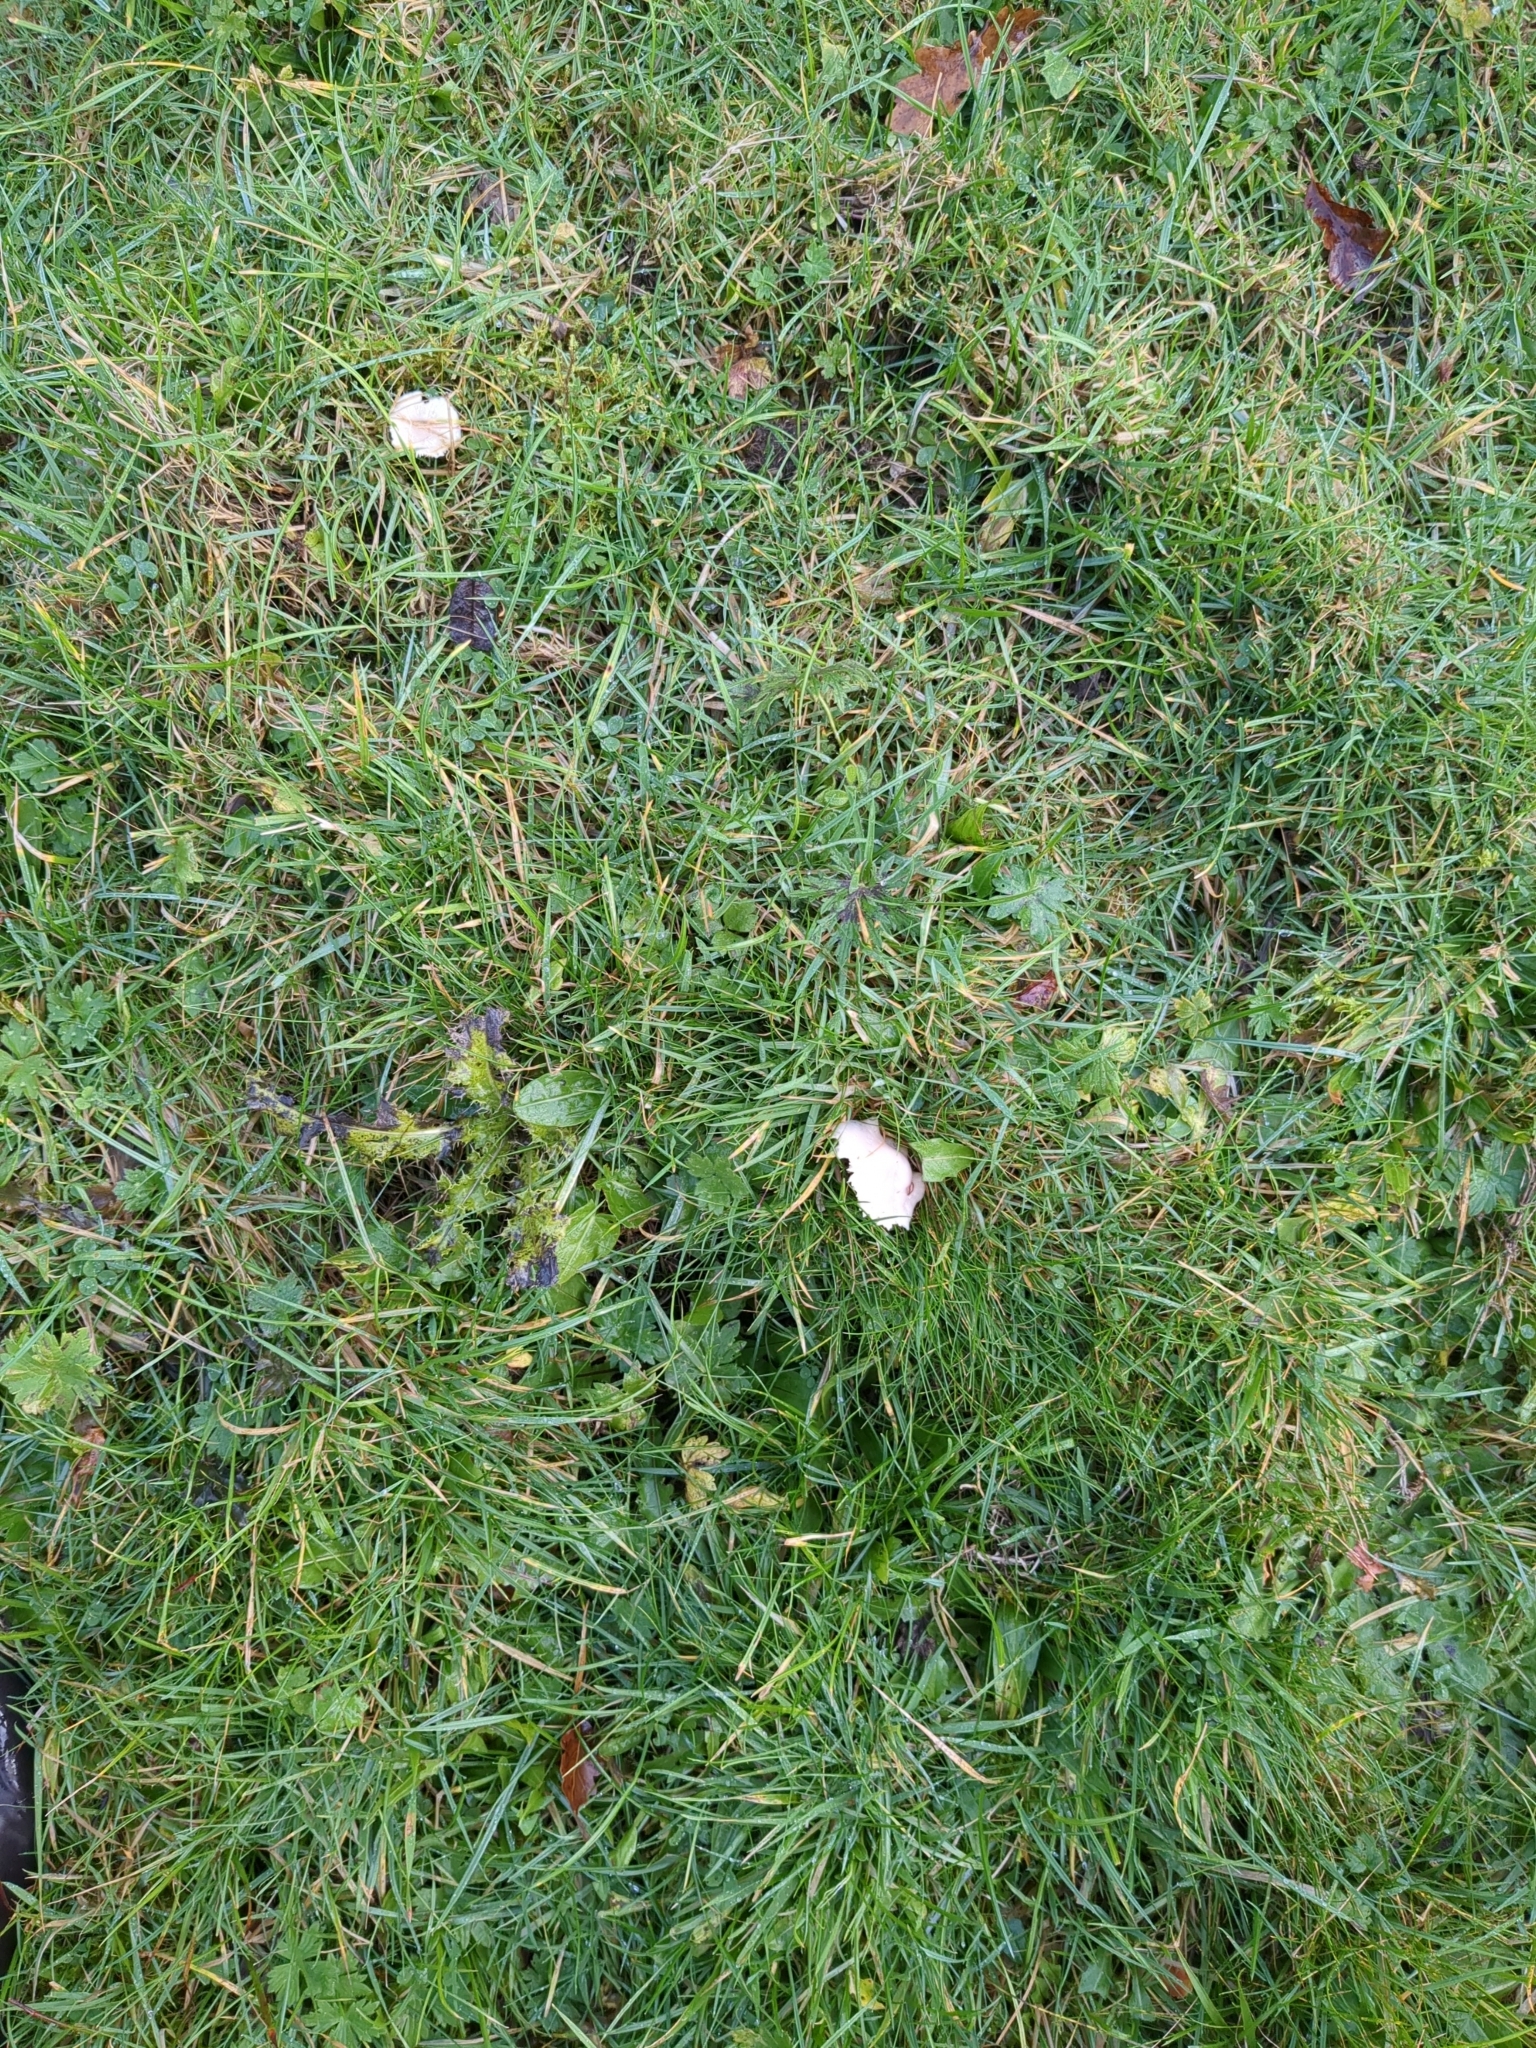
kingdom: Fungi
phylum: Basidiomycota
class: Agaricomycetes
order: Agaricales
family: Hygrophoraceae
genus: Cuphophyllus
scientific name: Cuphophyllus virgineus
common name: Snowy waxcap
